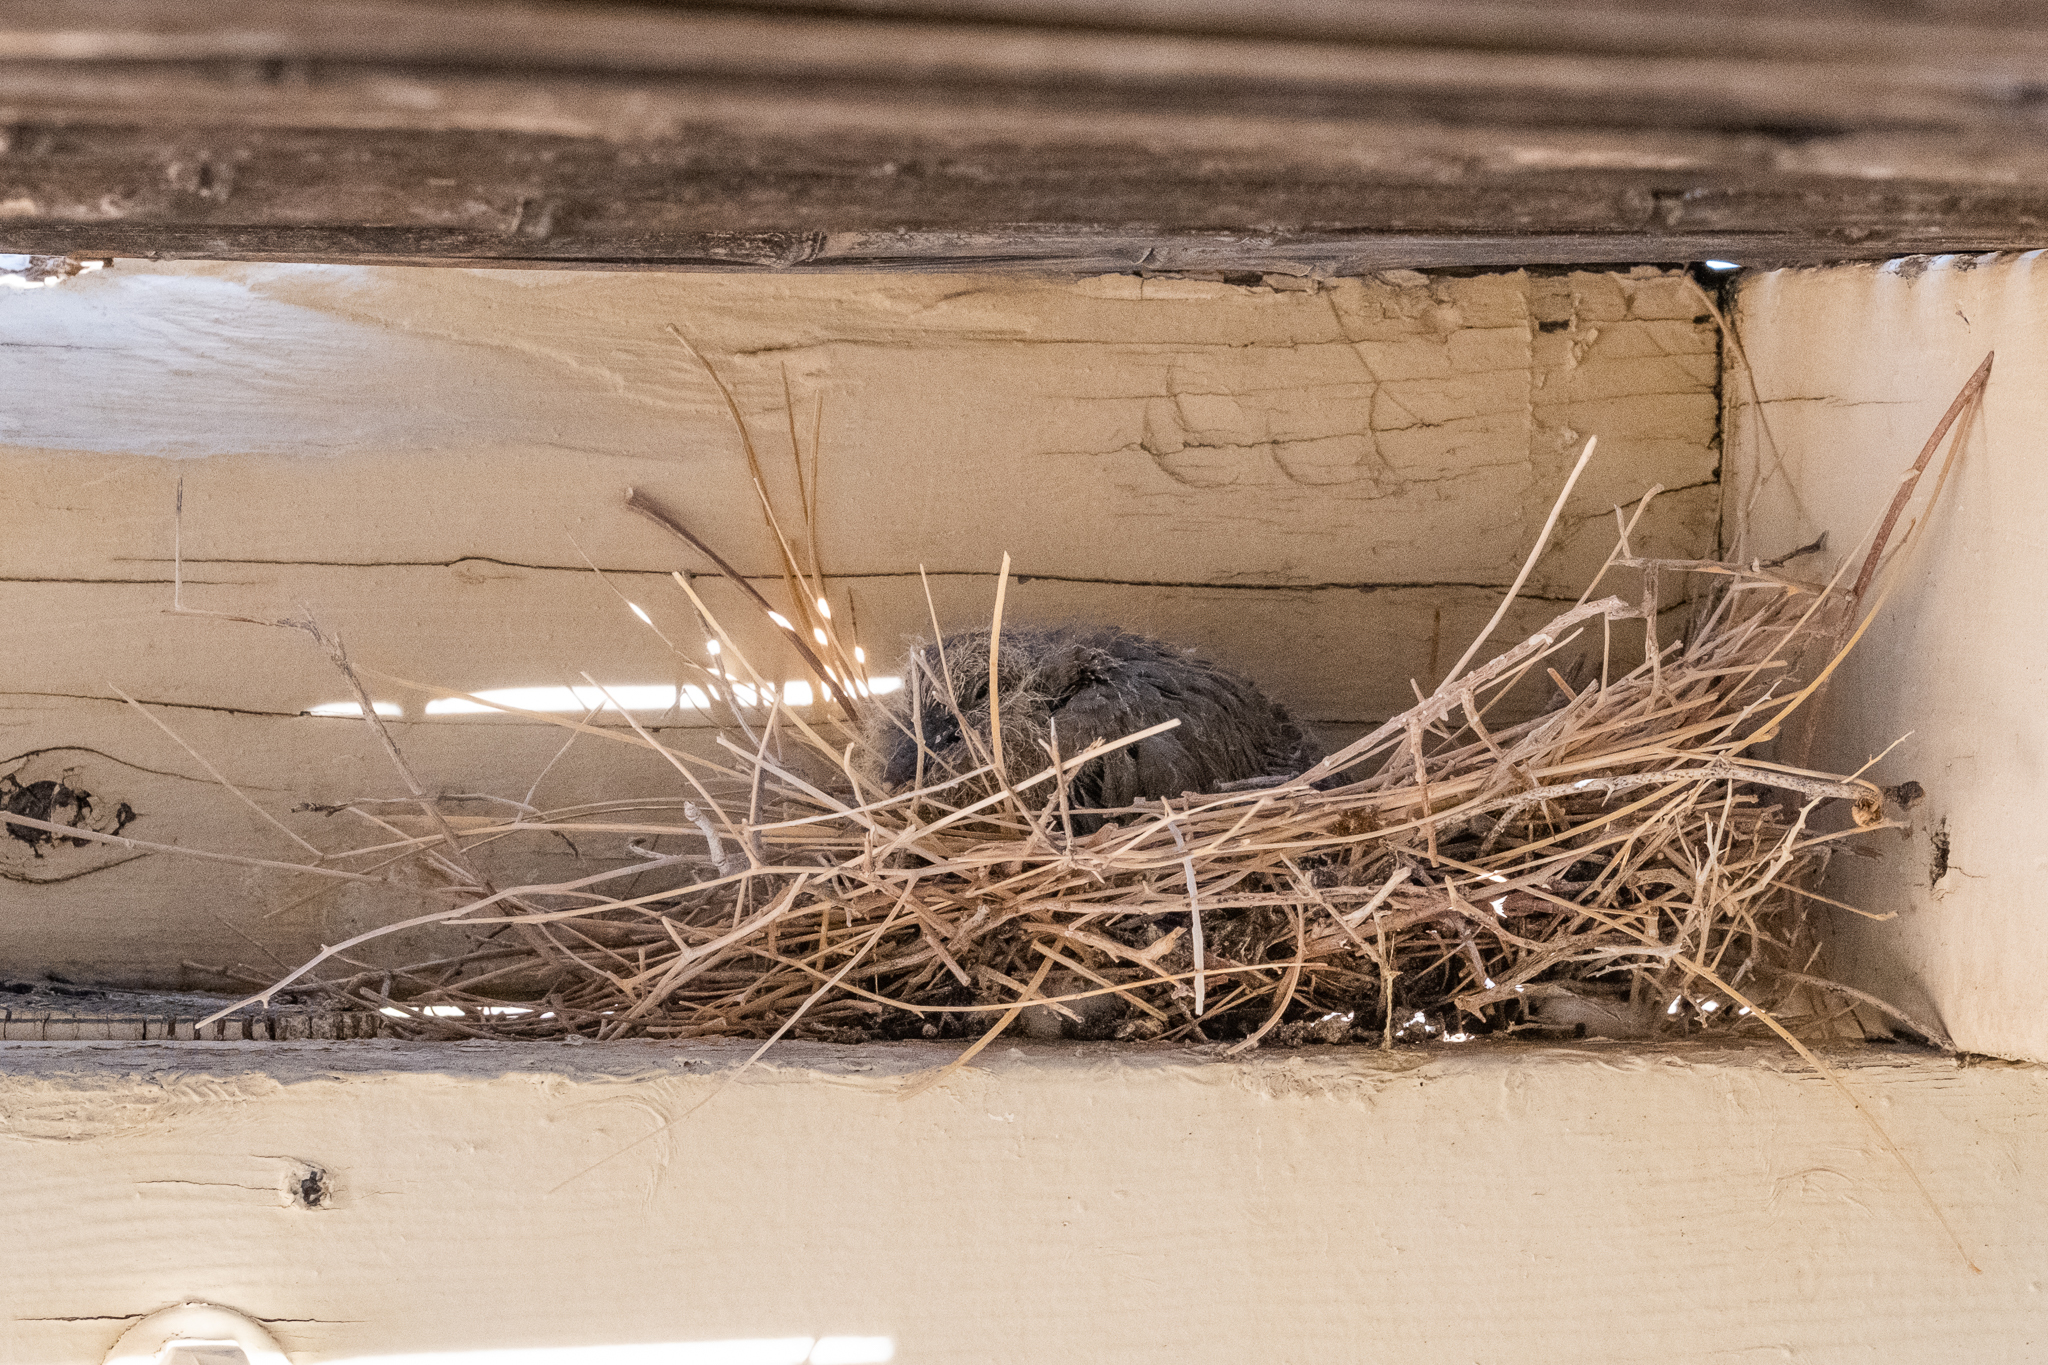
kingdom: Animalia
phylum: Chordata
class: Aves
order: Columbiformes
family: Columbidae
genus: Zenaida
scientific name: Zenaida macroura
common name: Mourning dove
